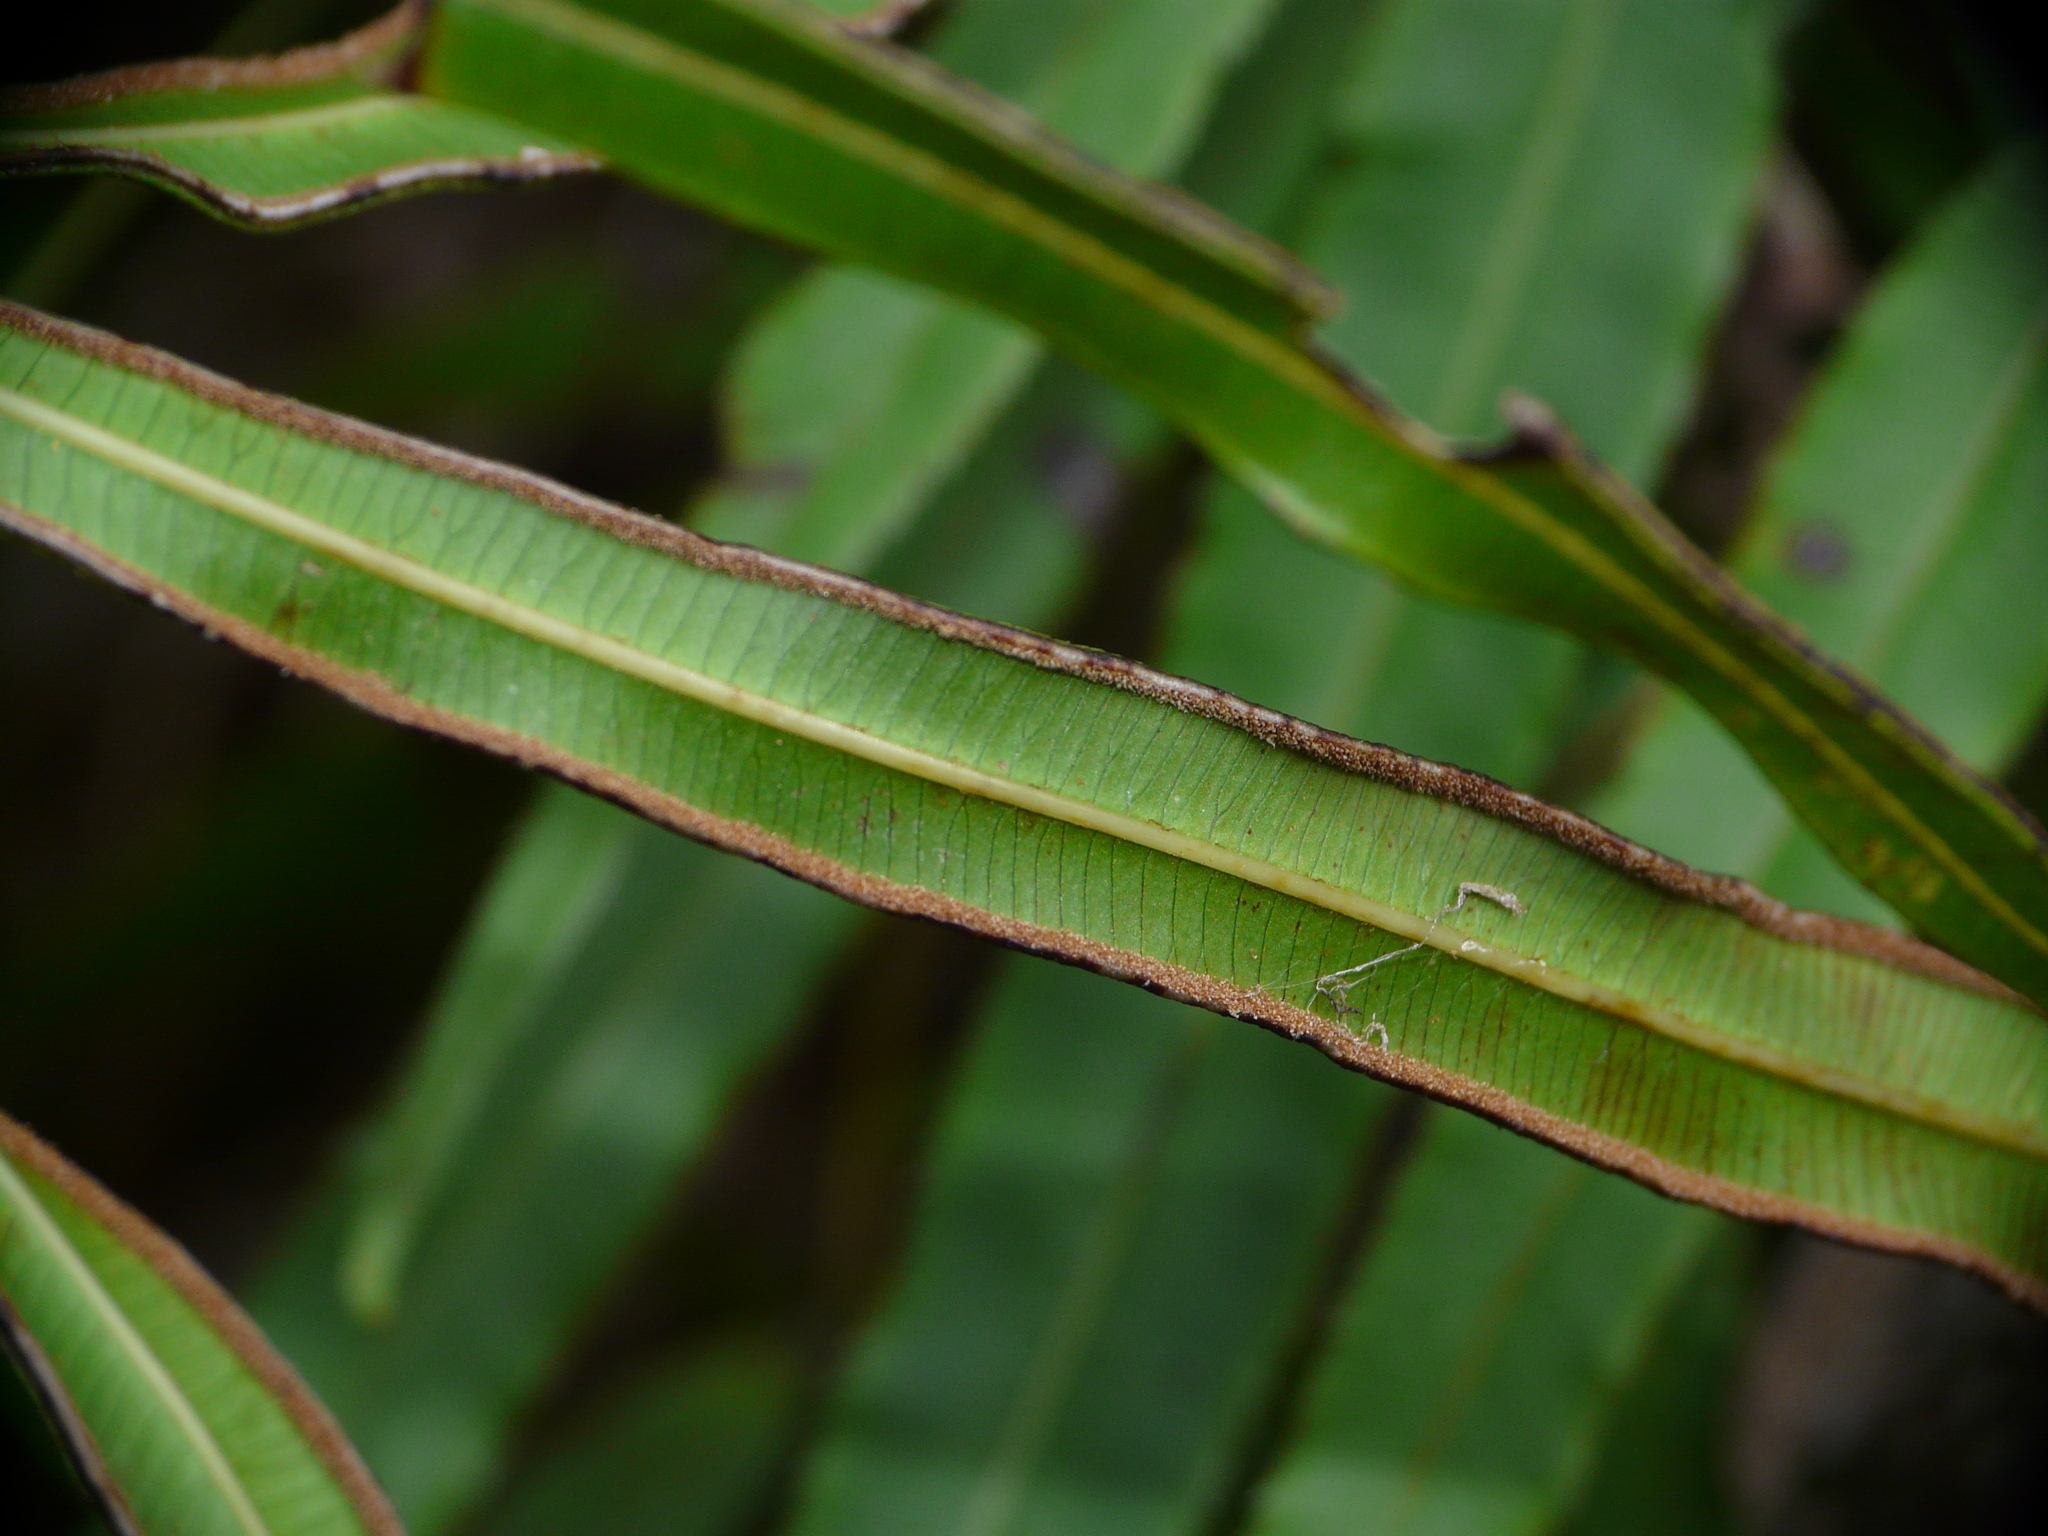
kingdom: Plantae
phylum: Tracheophyta
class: Polypodiopsida
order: Polypodiales
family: Pteridaceae
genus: Pteris
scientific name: Pteris cretica
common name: Ribbon fern
